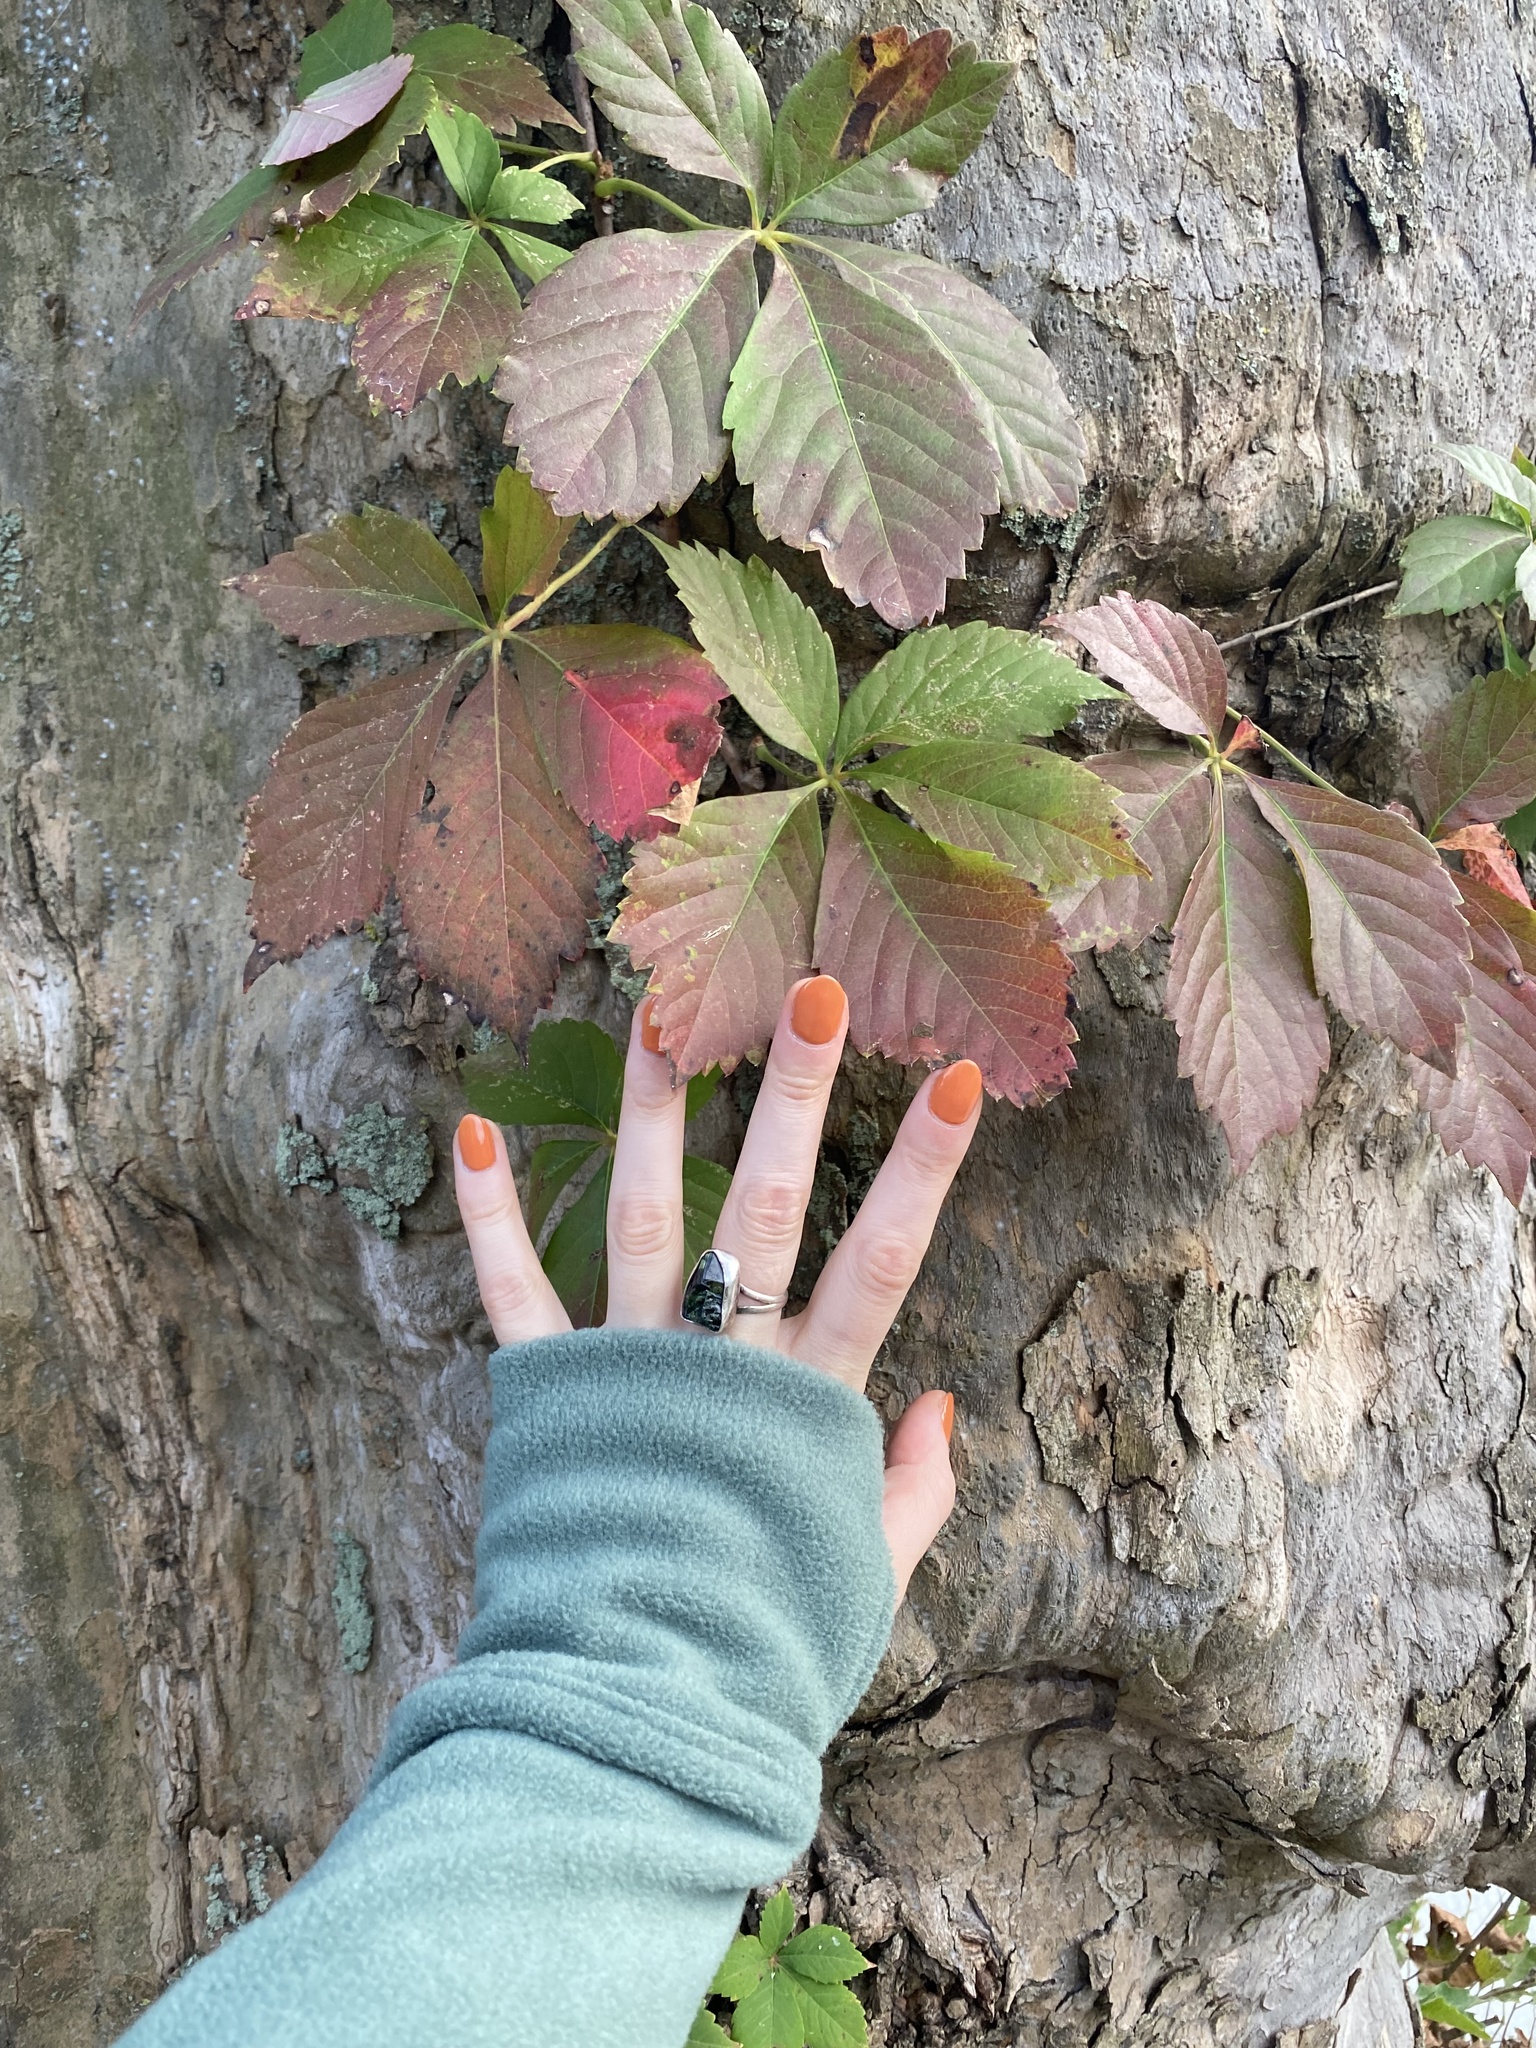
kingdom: Plantae
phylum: Tracheophyta
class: Magnoliopsida
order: Vitales
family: Vitaceae
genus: Parthenocissus
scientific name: Parthenocissus quinquefolia
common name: Virginia-creeper
